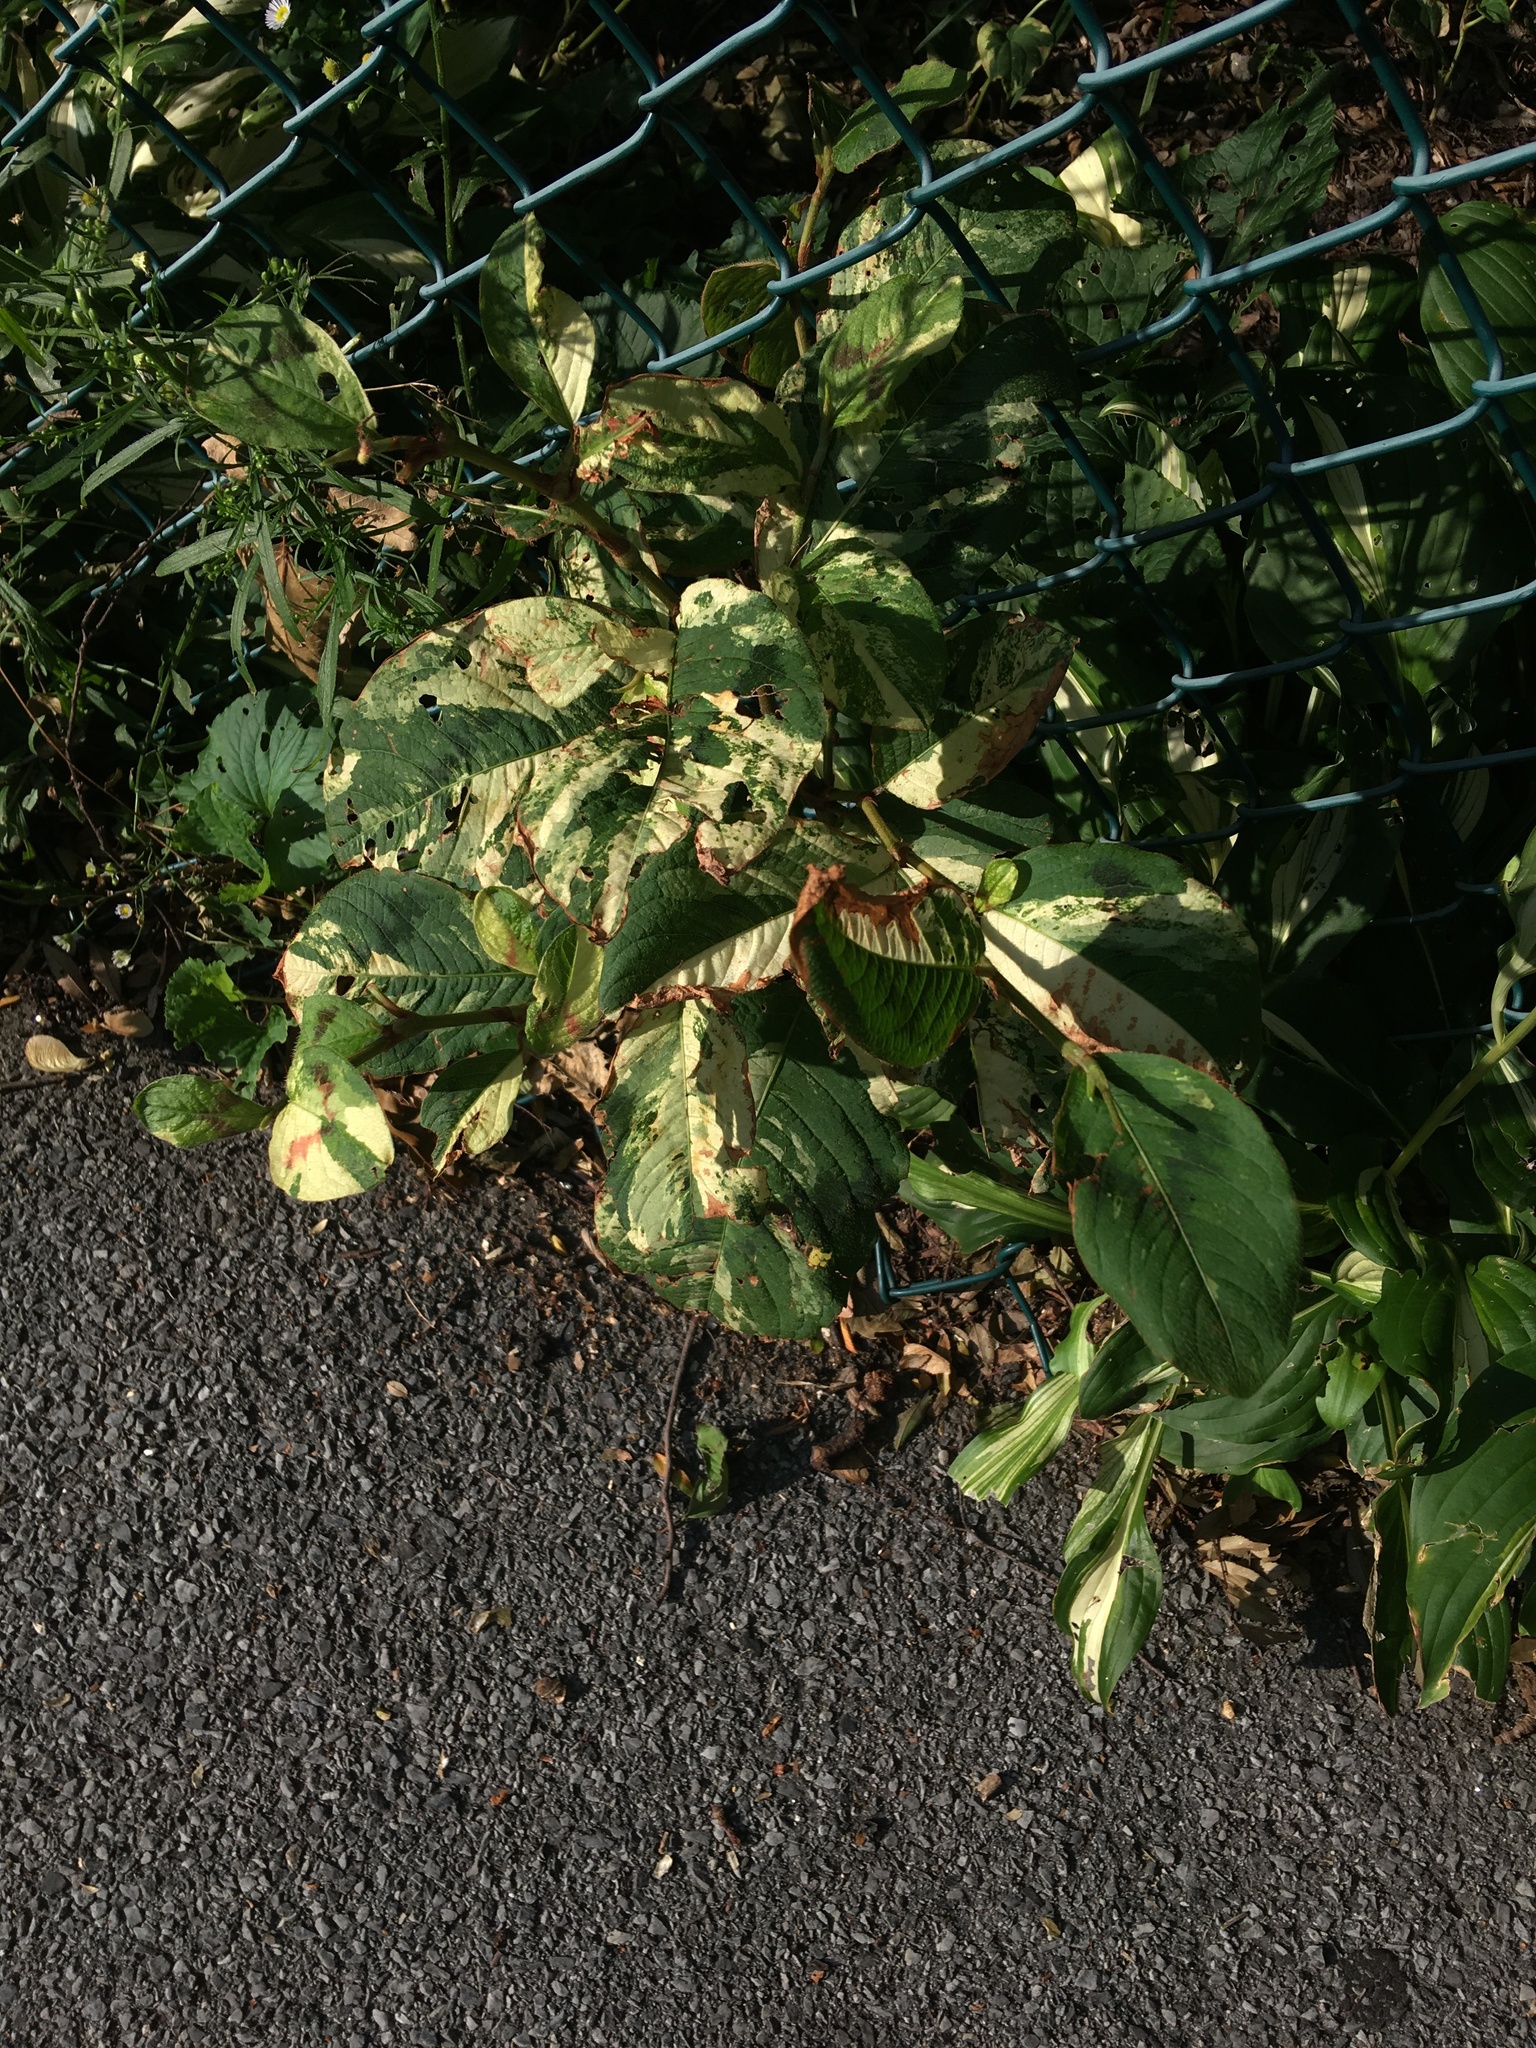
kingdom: Plantae
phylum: Tracheophyta
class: Magnoliopsida
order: Caryophyllales
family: Polygonaceae
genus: Persicaria
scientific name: Persicaria filiformis
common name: Asian jumpseed
